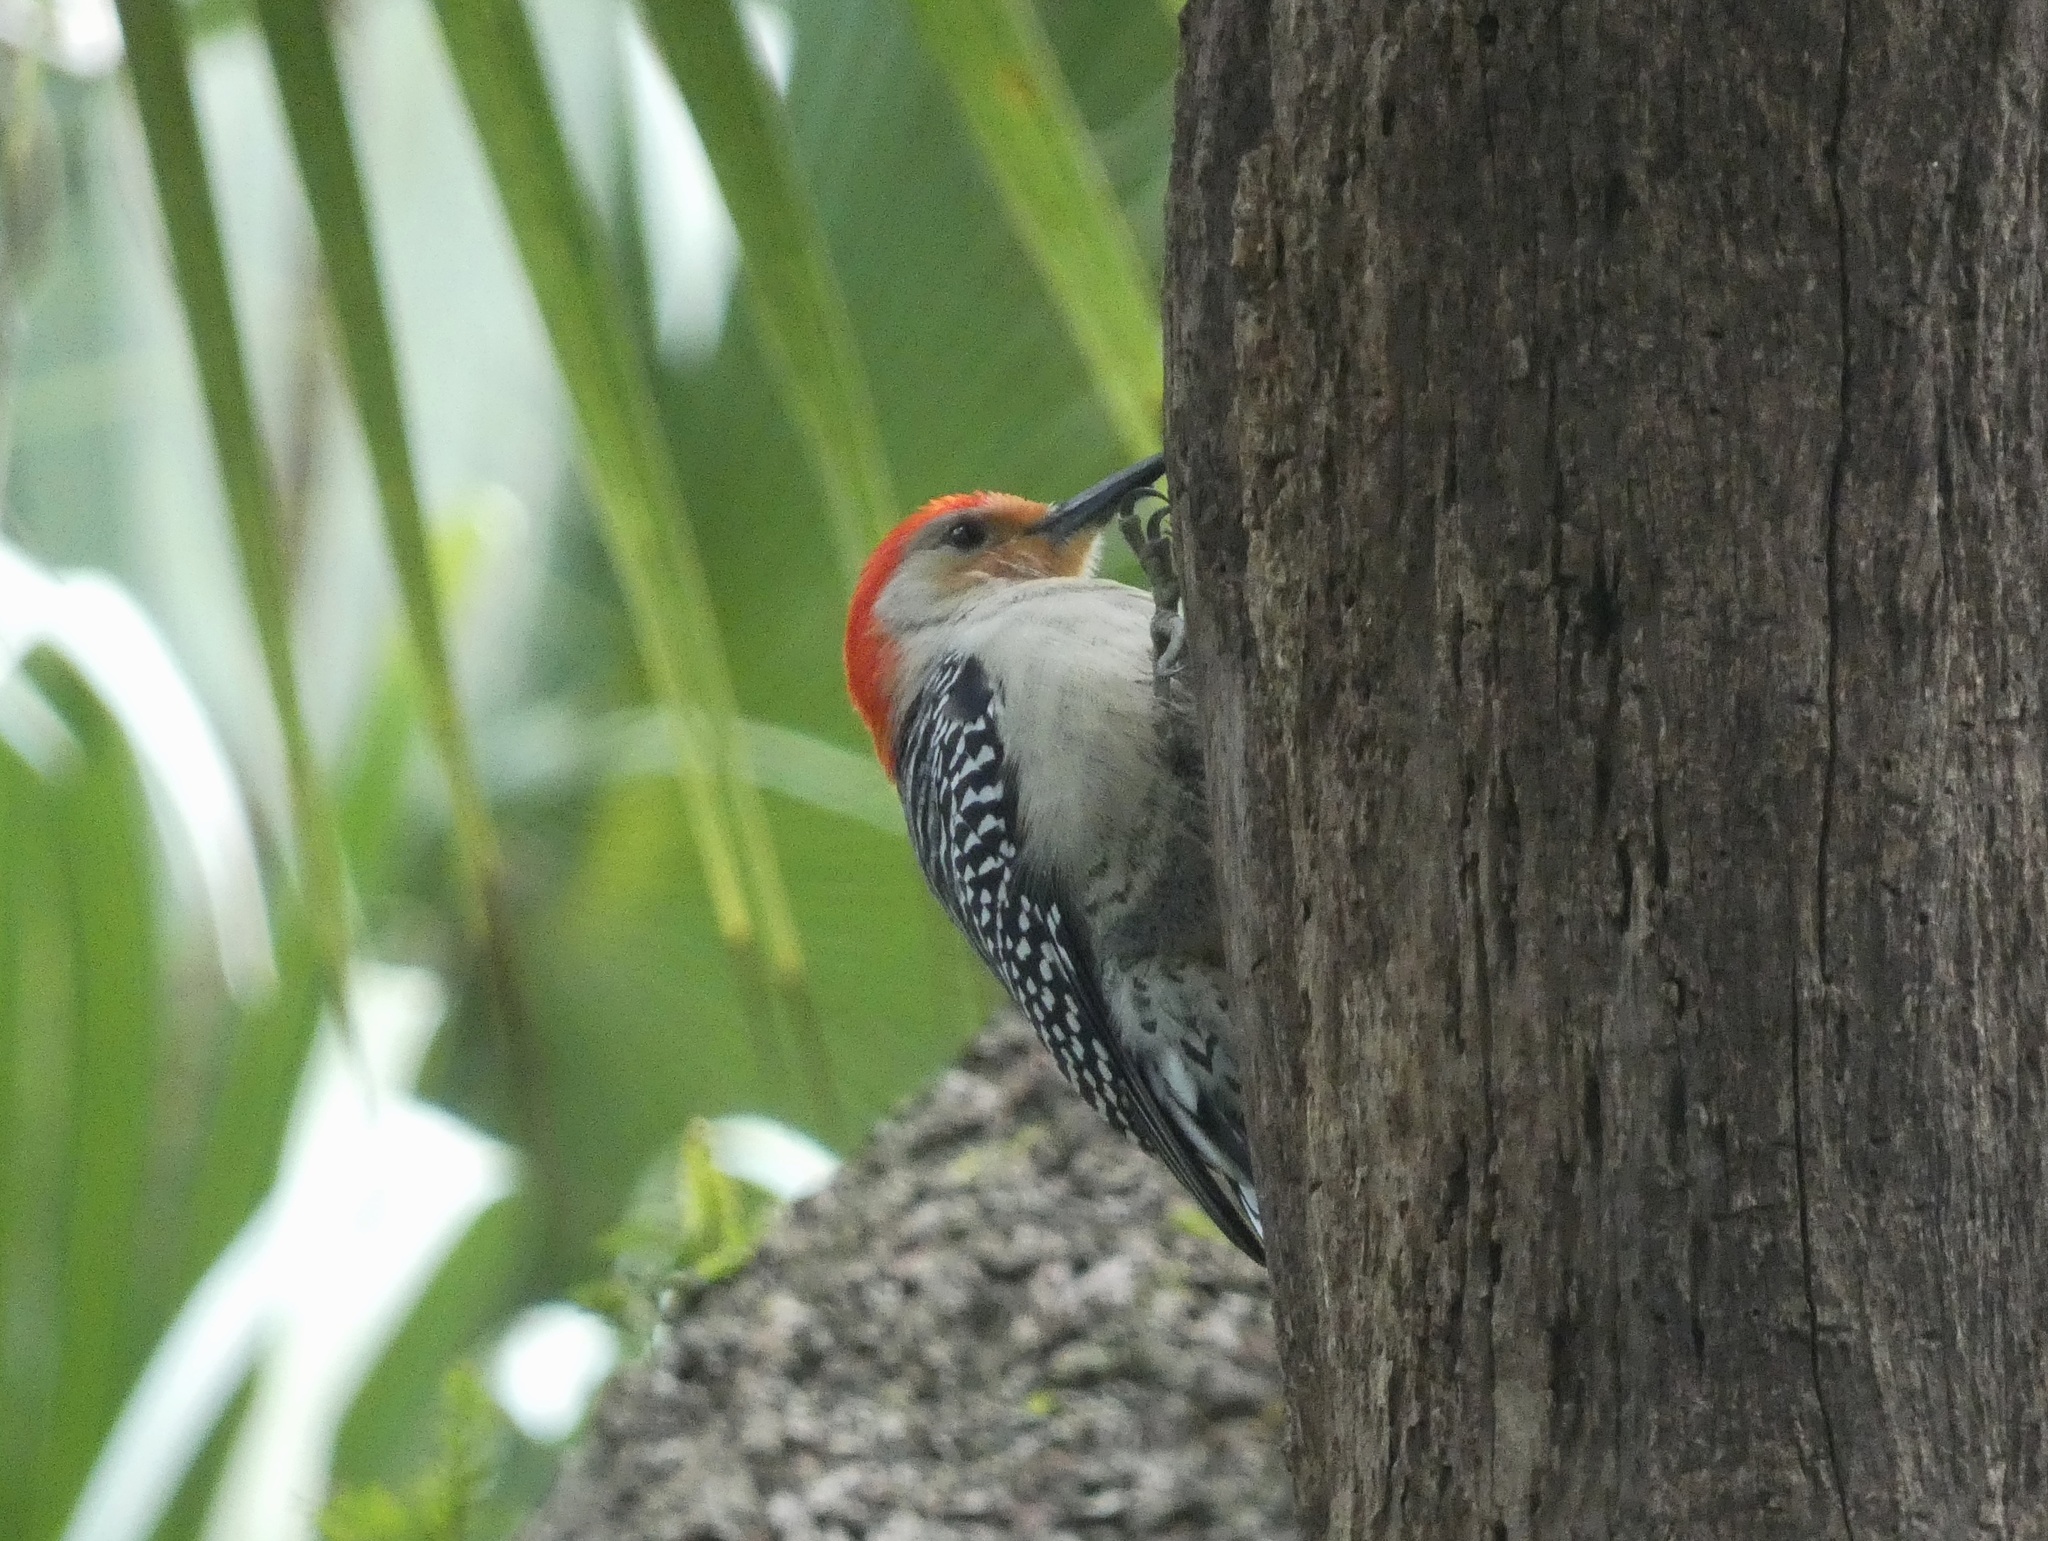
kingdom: Animalia
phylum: Chordata
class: Aves
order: Piciformes
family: Picidae
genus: Melanerpes
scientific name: Melanerpes carolinus
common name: Red-bellied woodpecker
